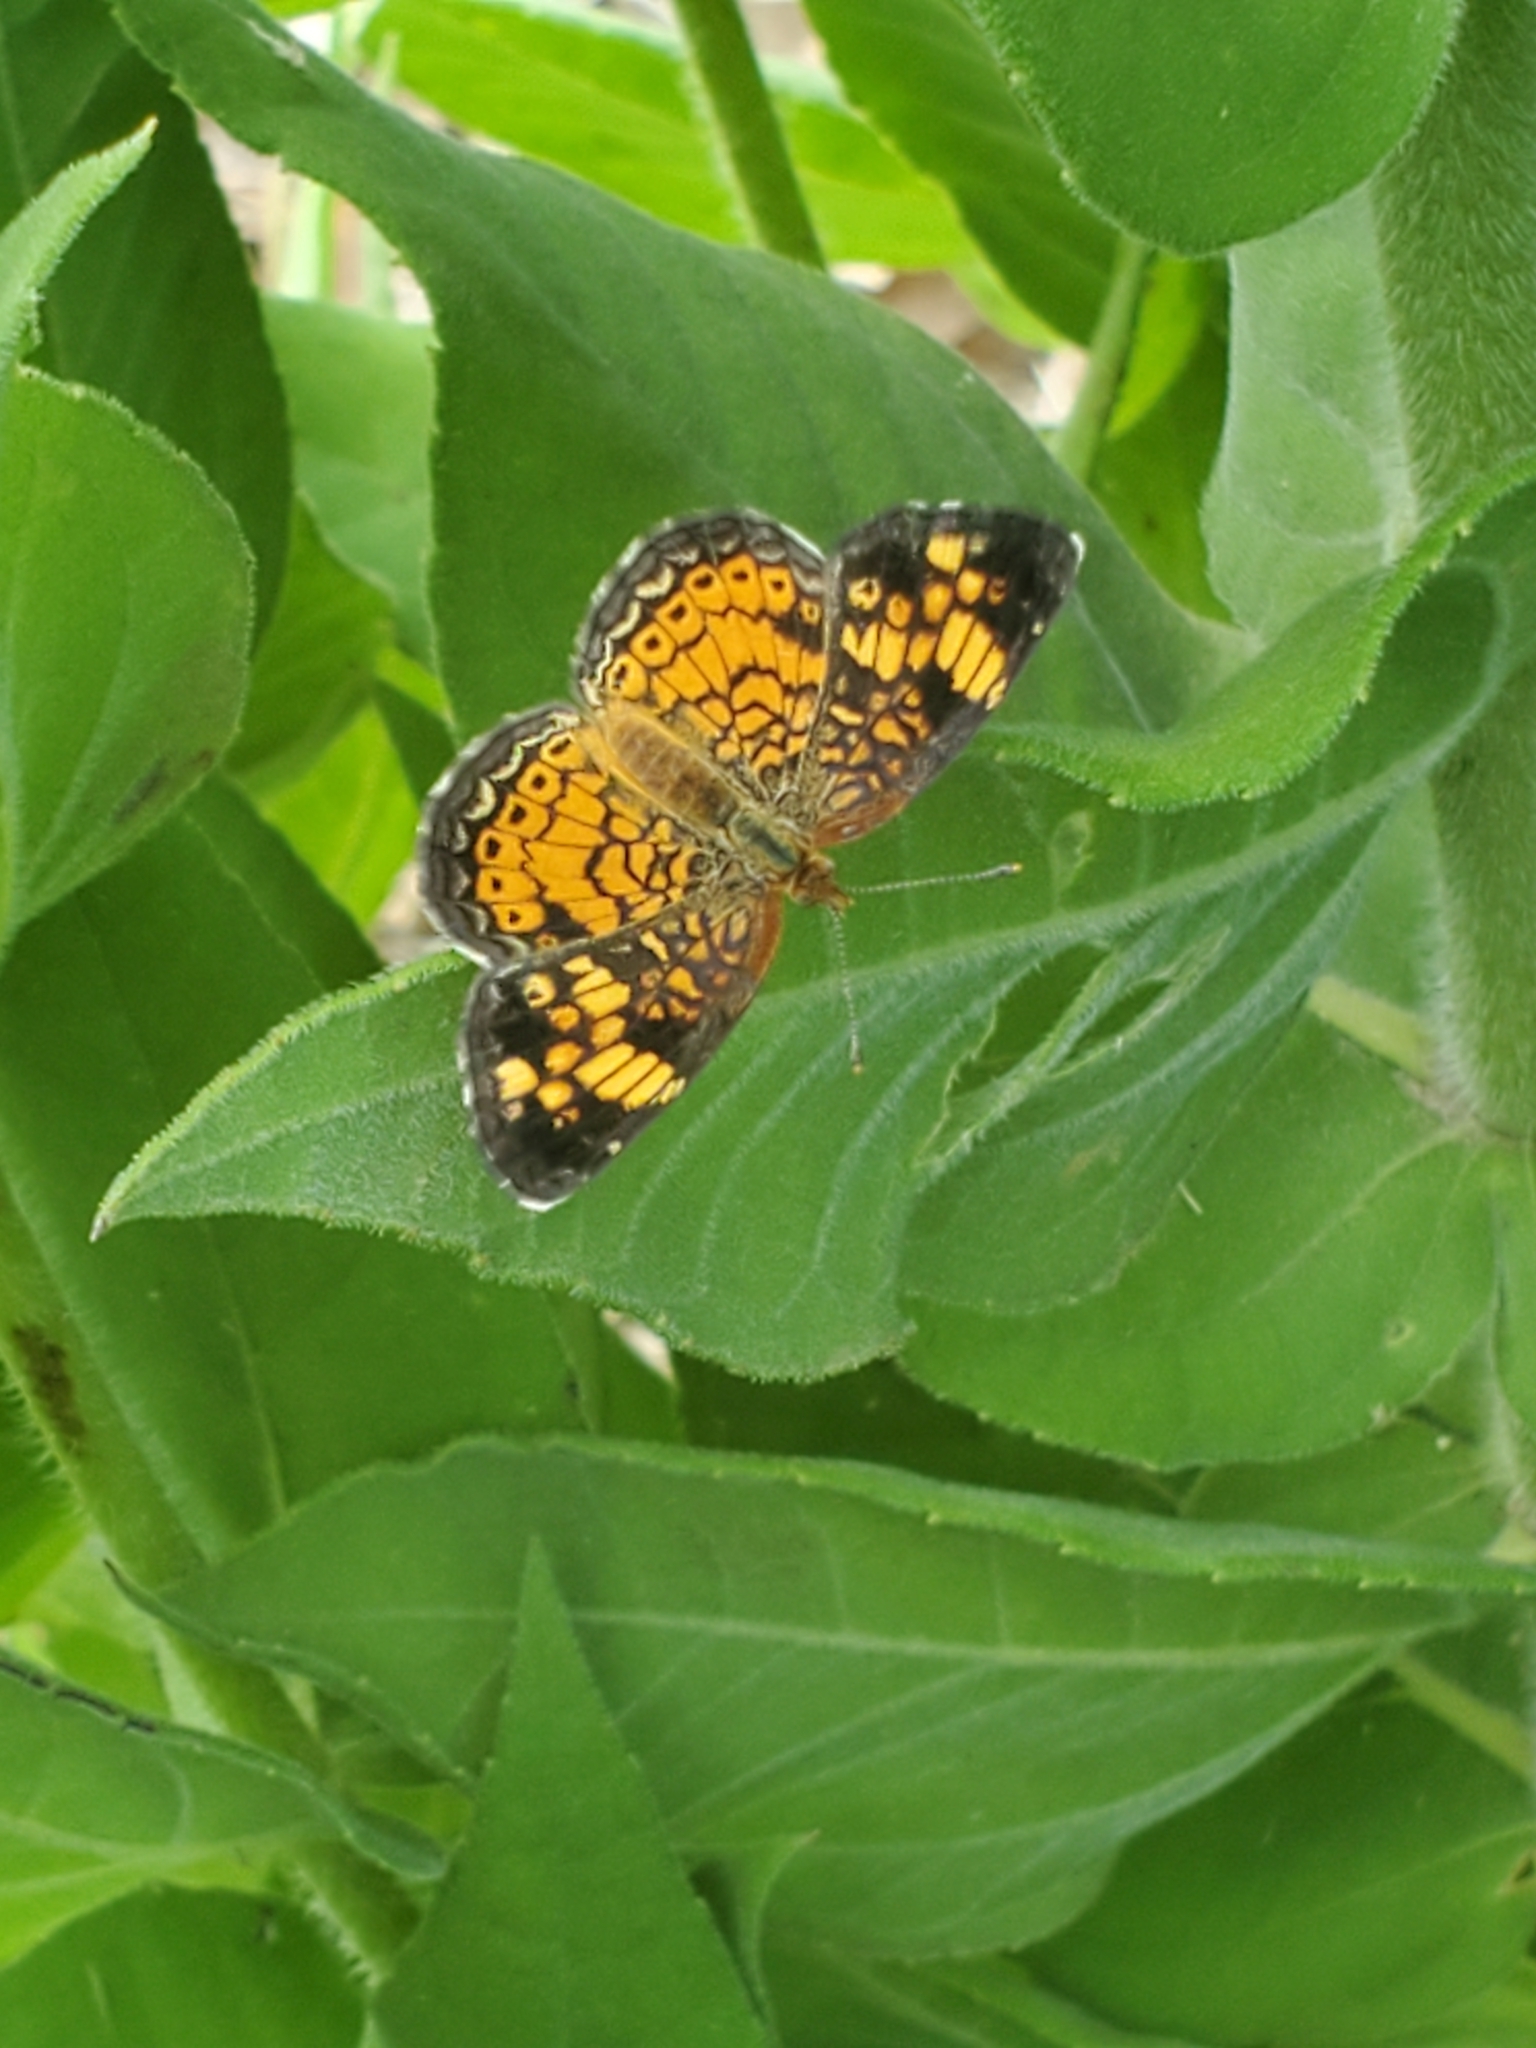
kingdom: Animalia
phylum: Arthropoda
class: Insecta
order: Lepidoptera
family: Nymphalidae
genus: Phyciodes
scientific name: Phyciodes tharos
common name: Pearl crescent
